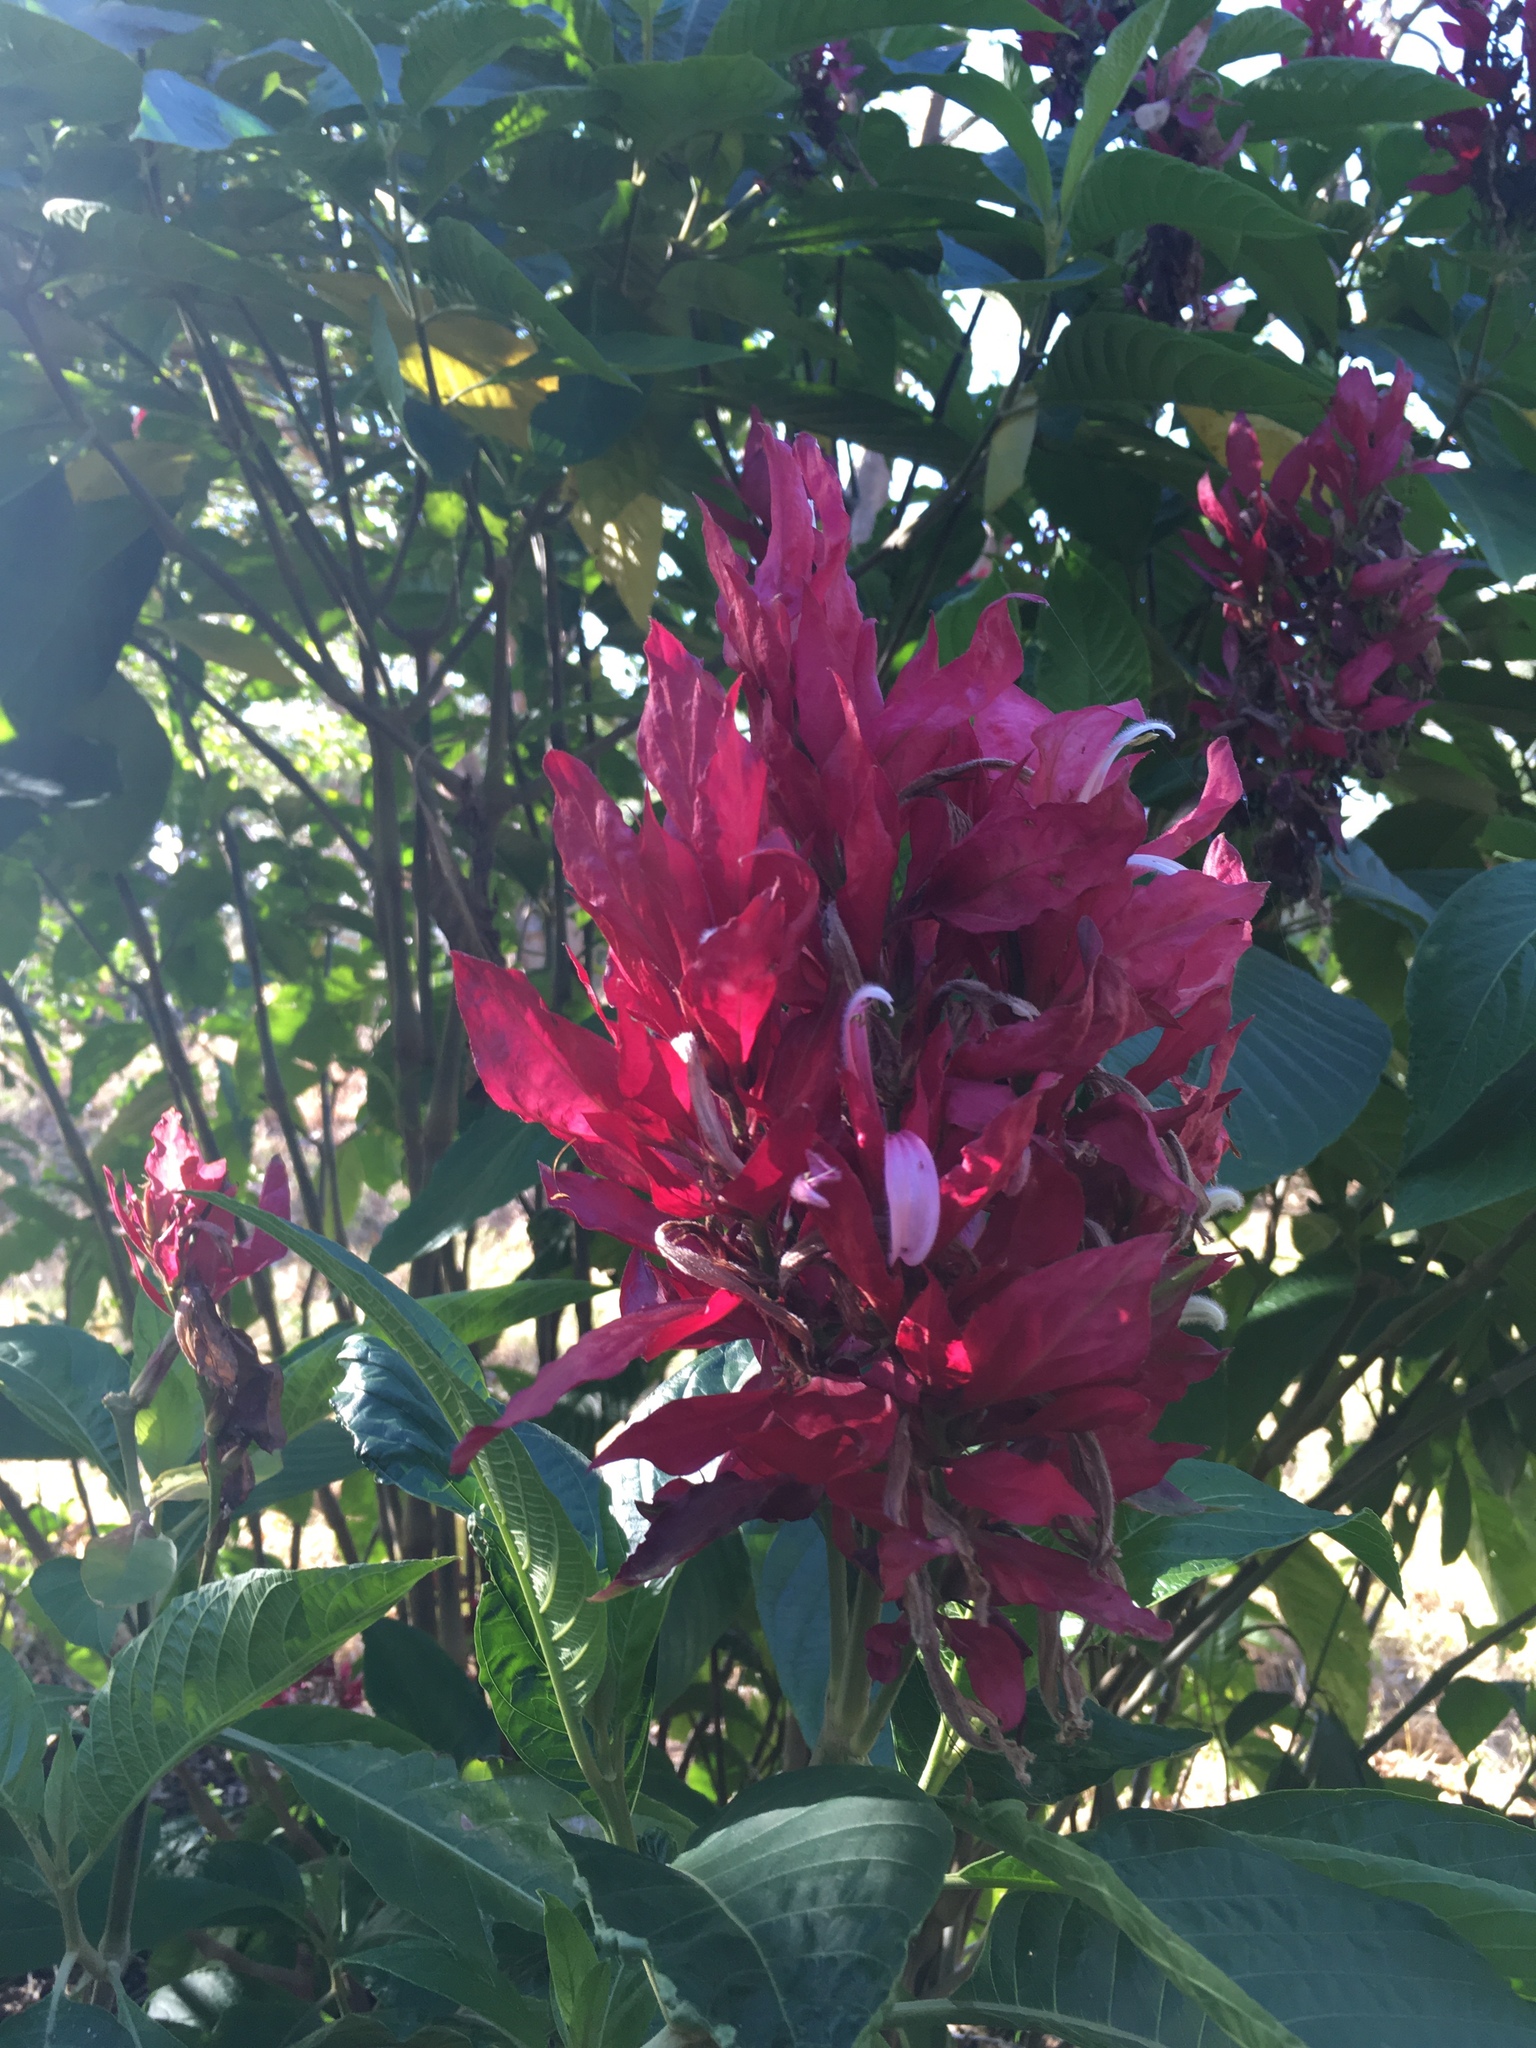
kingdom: Plantae
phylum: Tracheophyta
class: Magnoliopsida
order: Lamiales
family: Acanthaceae
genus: Megaskepasma
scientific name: Megaskepasma erythrochlamys
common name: Brazilian red-cloak
